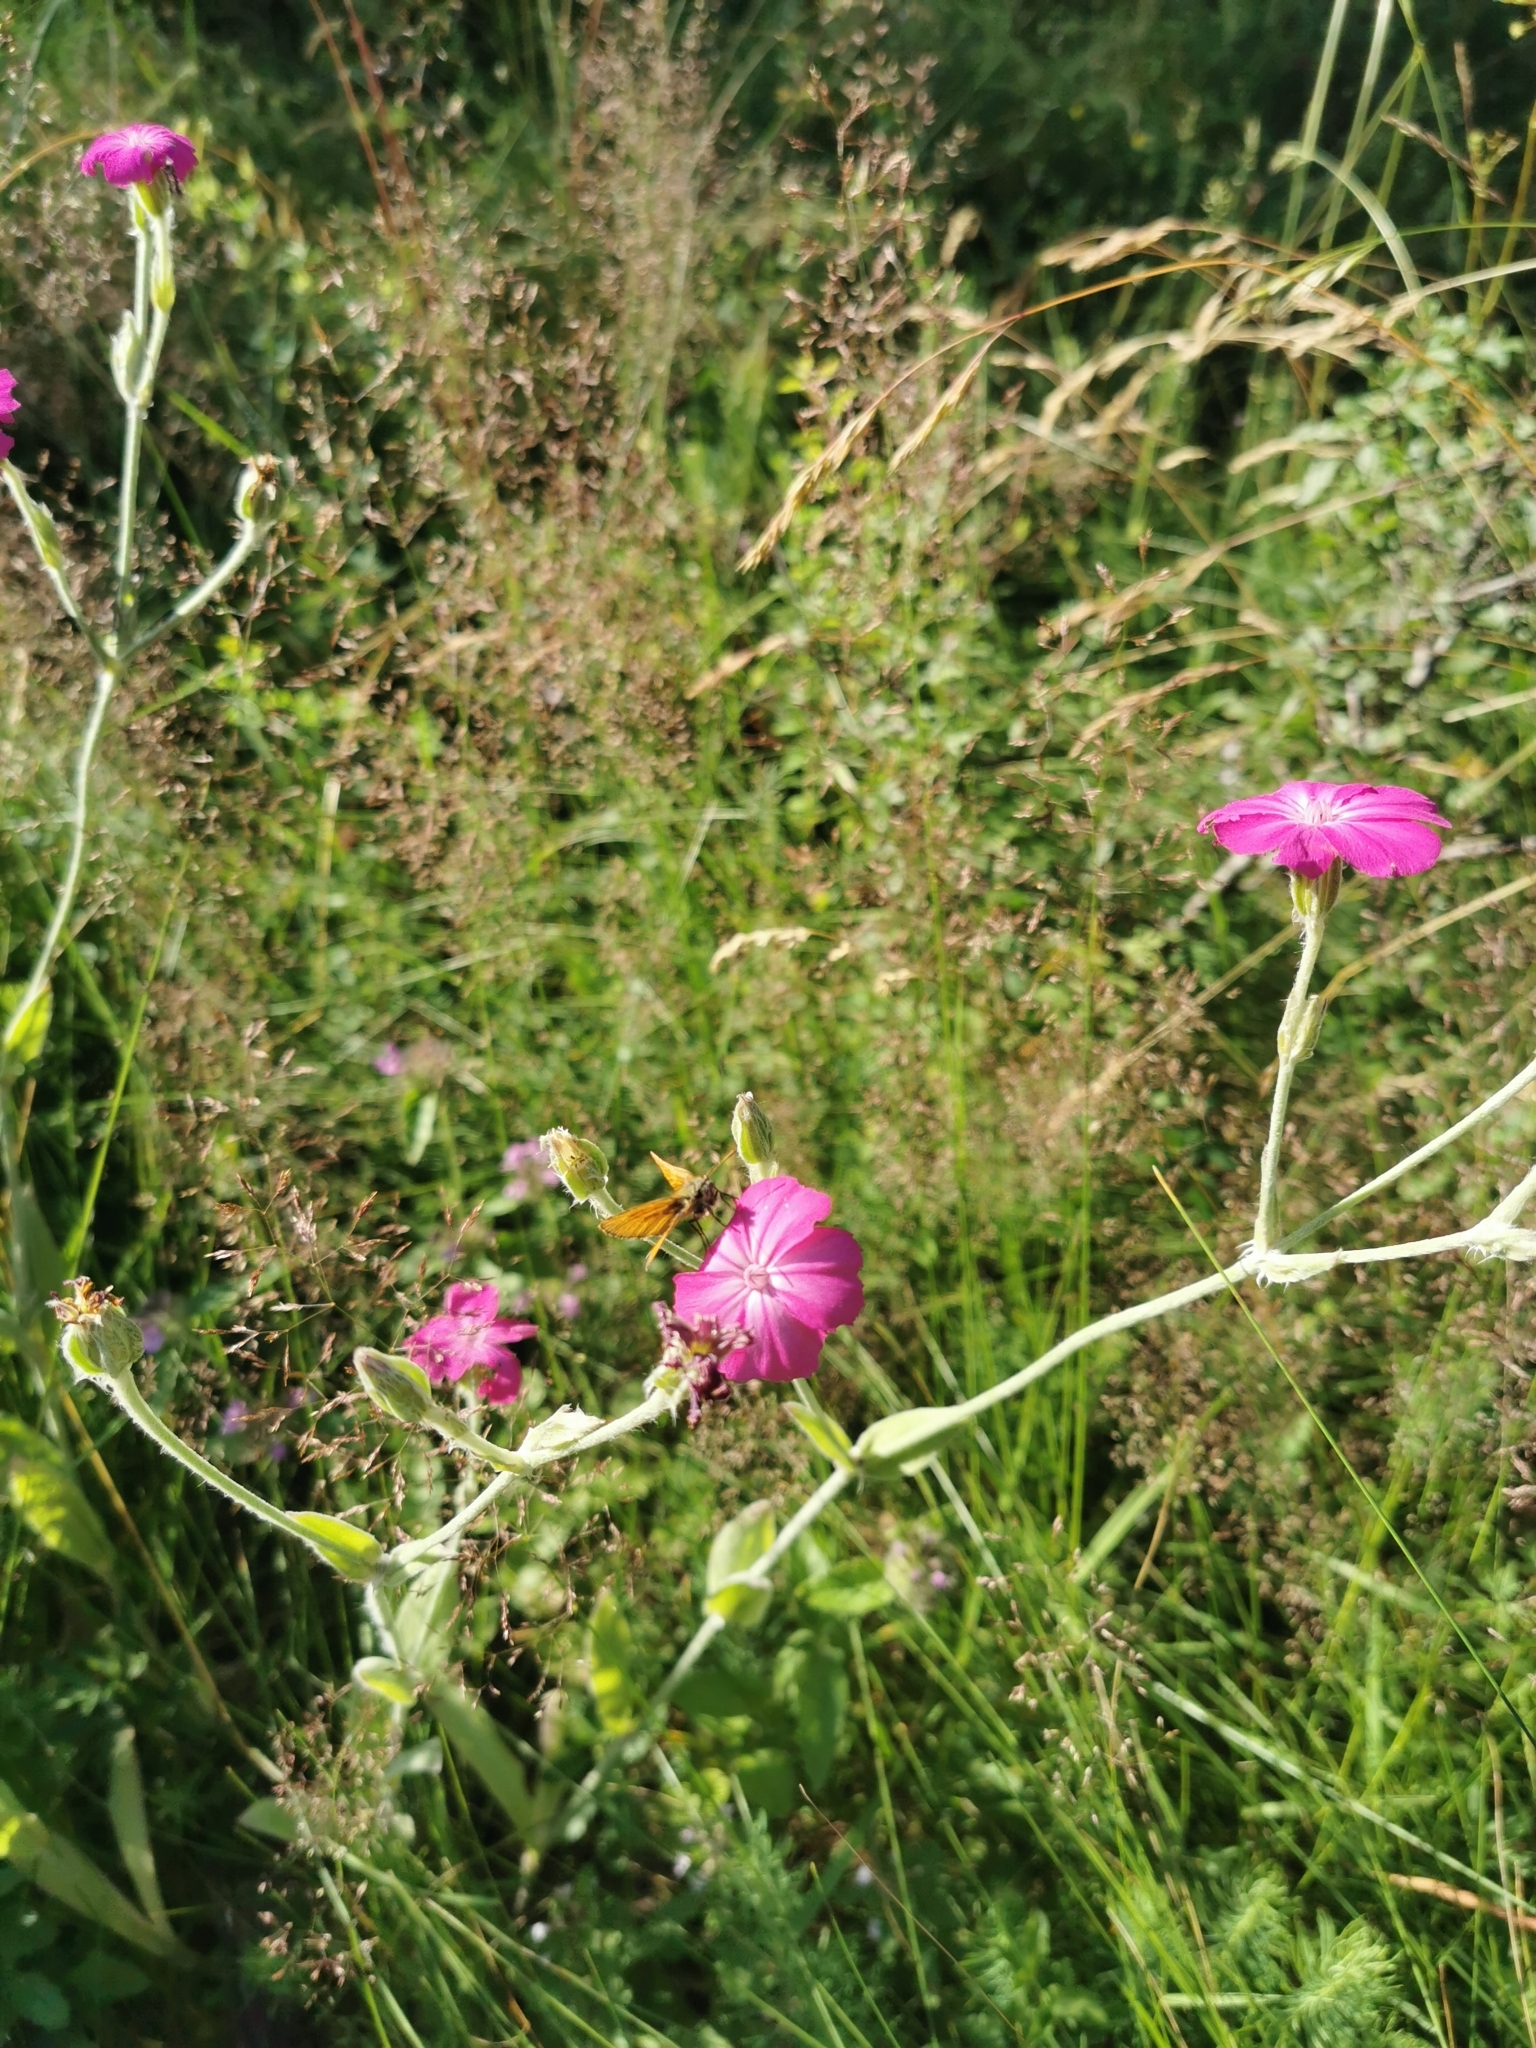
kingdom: Animalia
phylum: Arthropoda
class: Insecta
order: Lepidoptera
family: Hesperiidae
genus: Thymelicus
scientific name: Thymelicus sylvestris
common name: Small skipper
